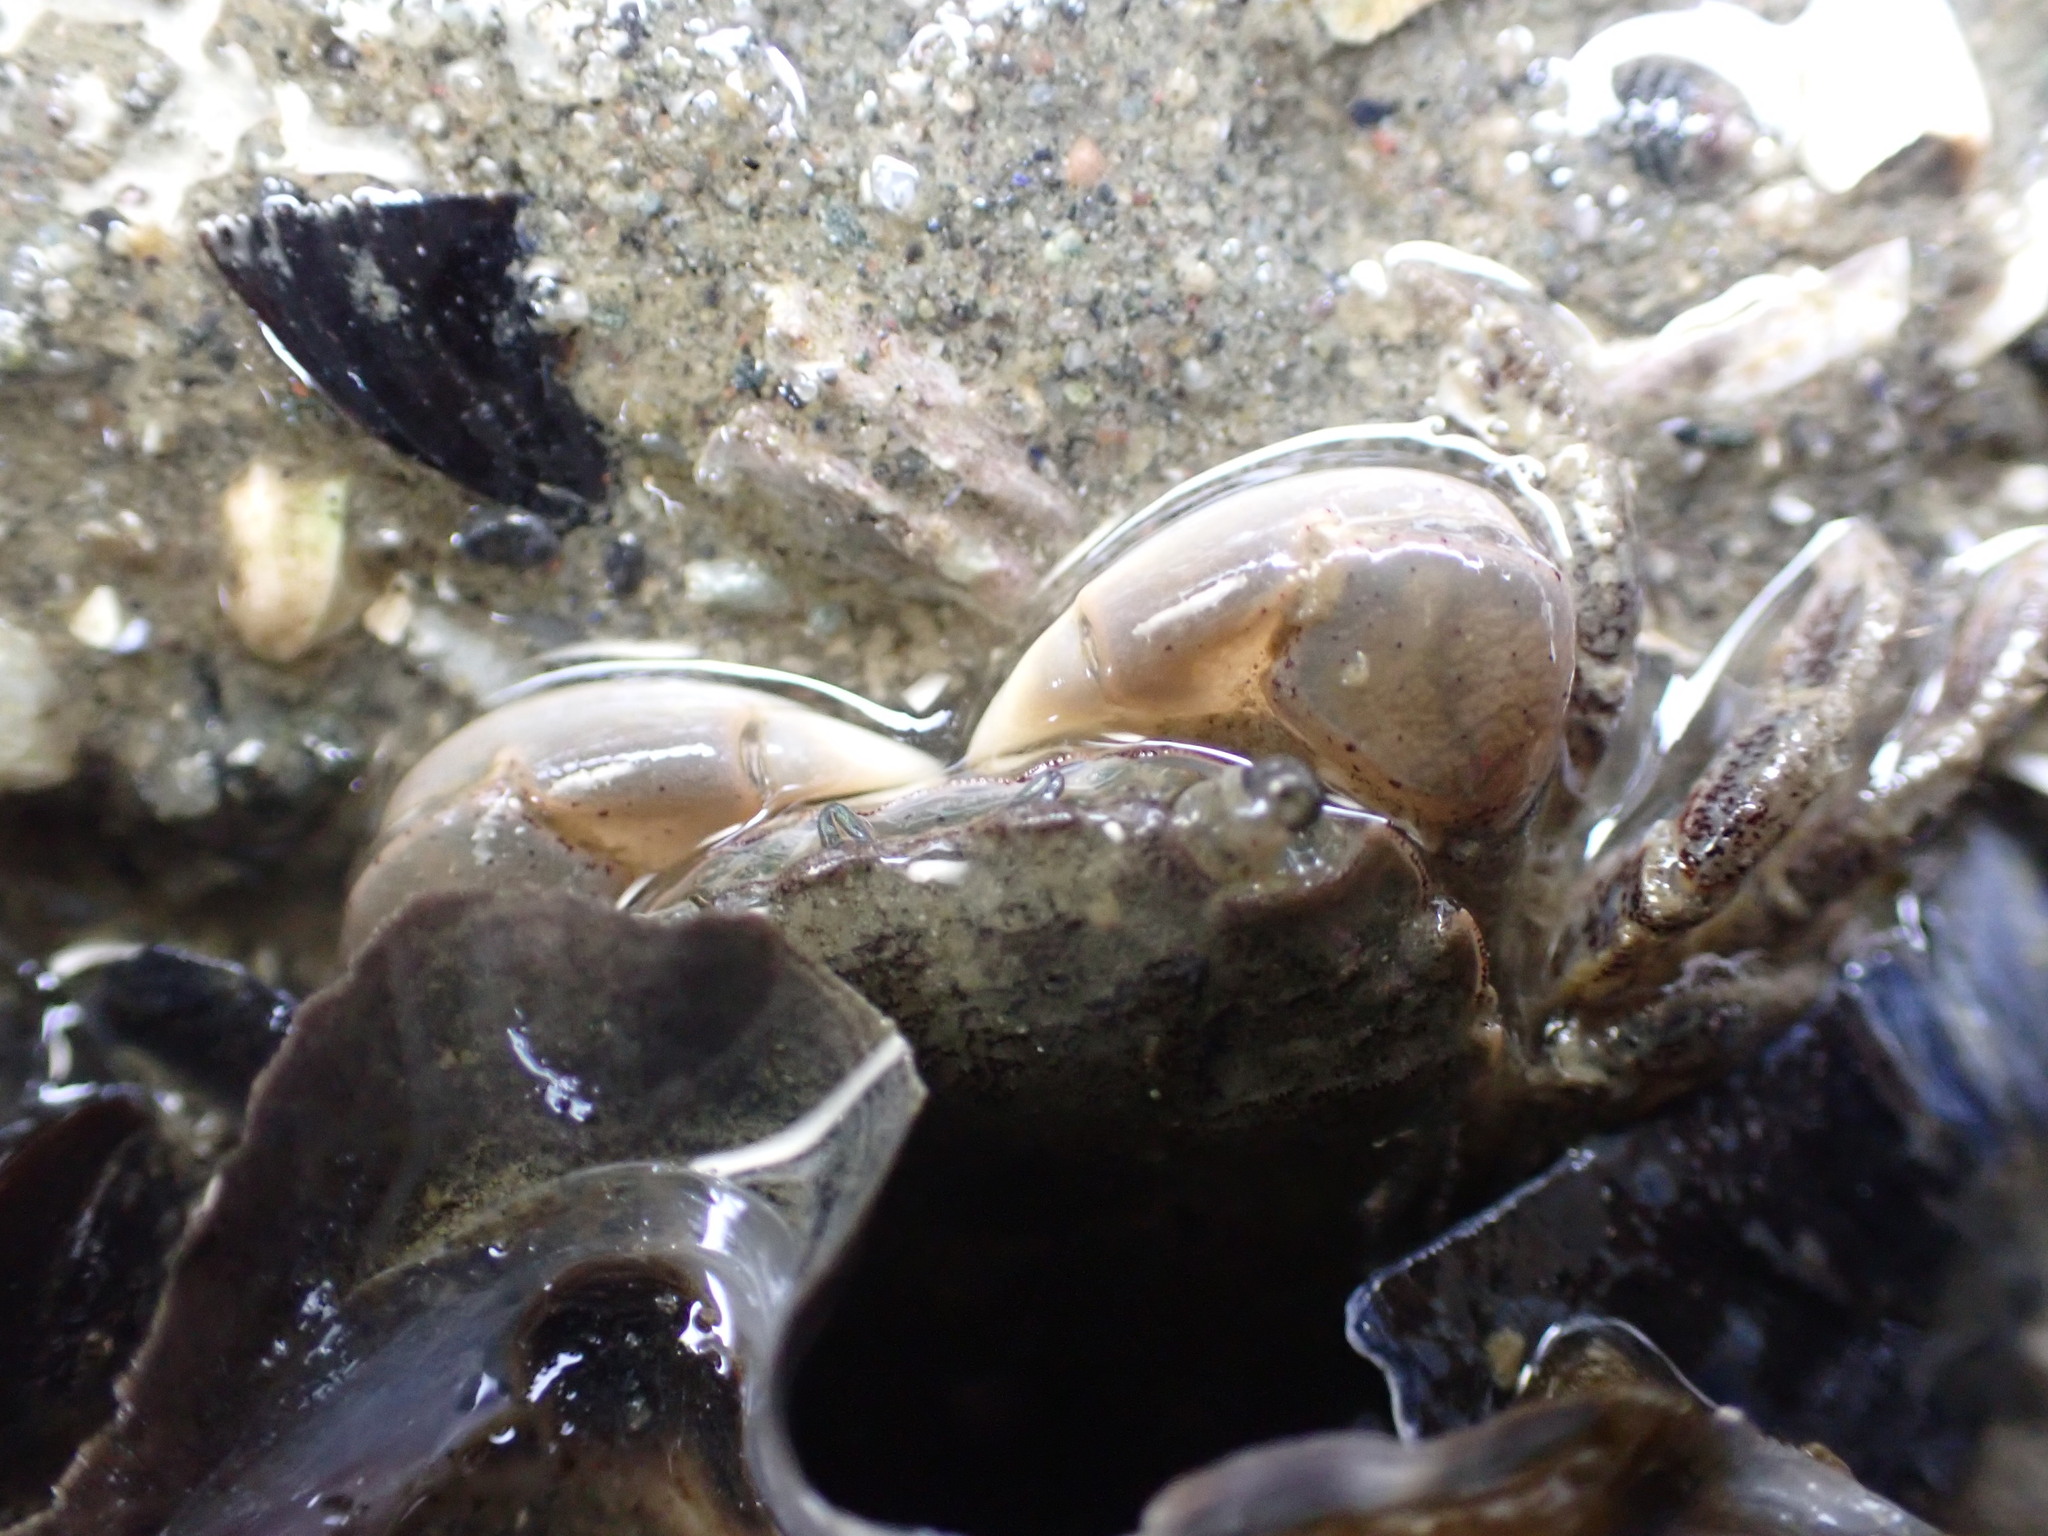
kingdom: Animalia
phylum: Arthropoda
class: Malacostraca
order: Decapoda
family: Varunidae
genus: Hemigrapsus
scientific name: Hemigrapsus oregonensis
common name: Yellow shore crab
